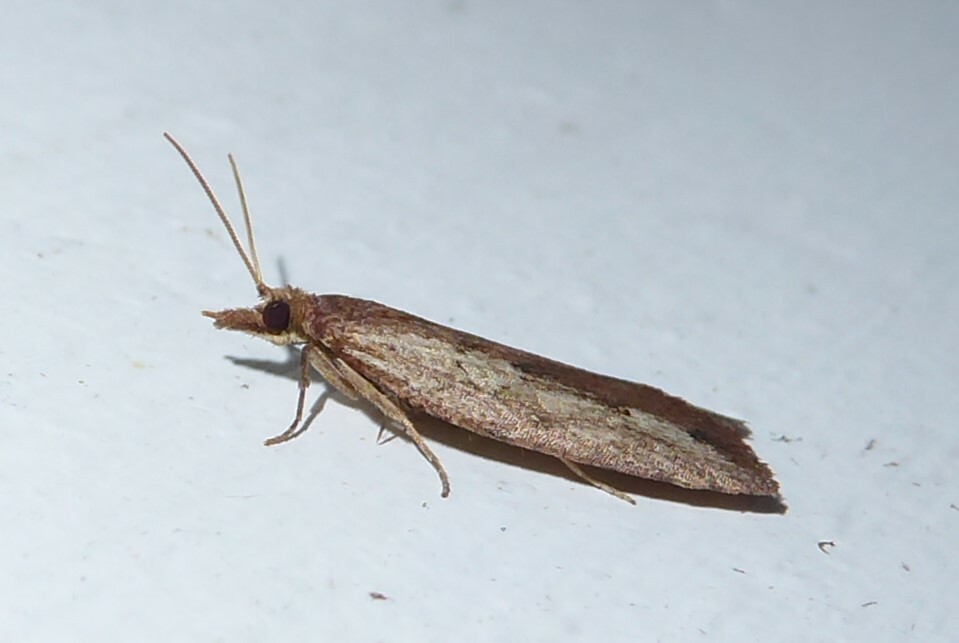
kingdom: Animalia
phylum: Arthropoda
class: Insecta
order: Lepidoptera
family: Tortricidae
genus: Planotortrix
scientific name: Planotortrix notophaea
